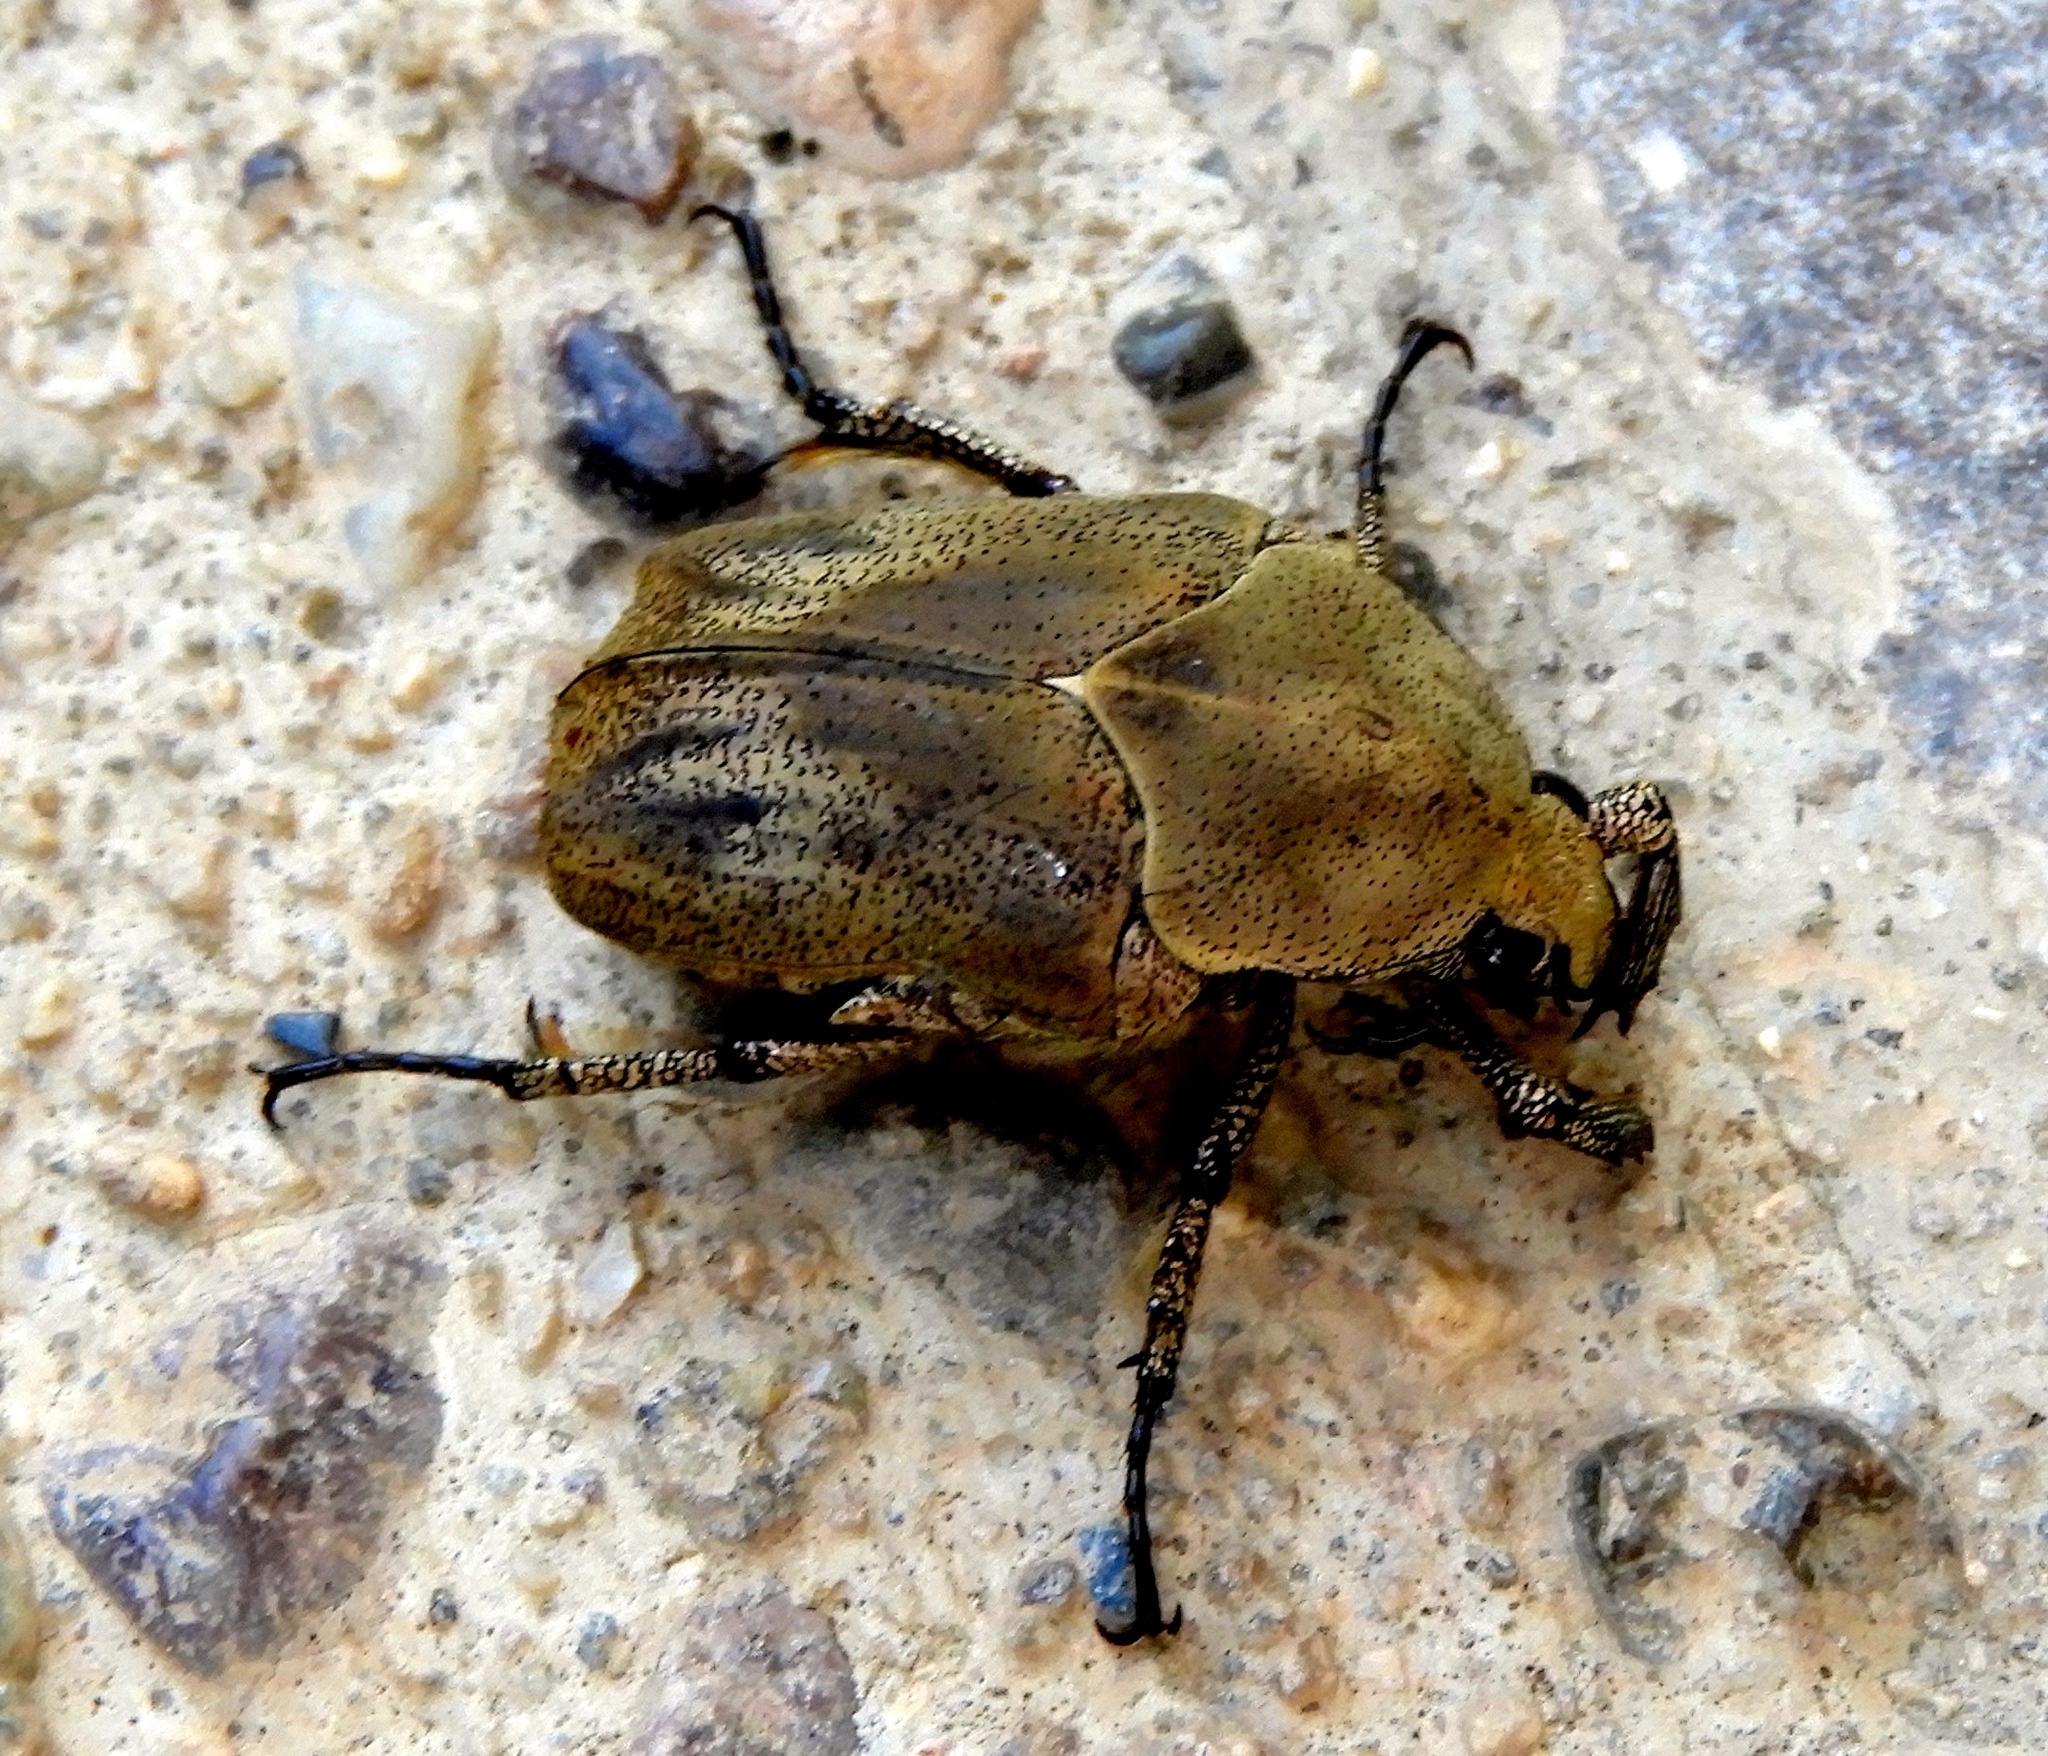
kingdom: Animalia
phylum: Arthropoda
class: Insecta
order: Coleoptera
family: Scarabaeidae
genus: Hologymnetis
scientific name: Hologymnetis margaritis
